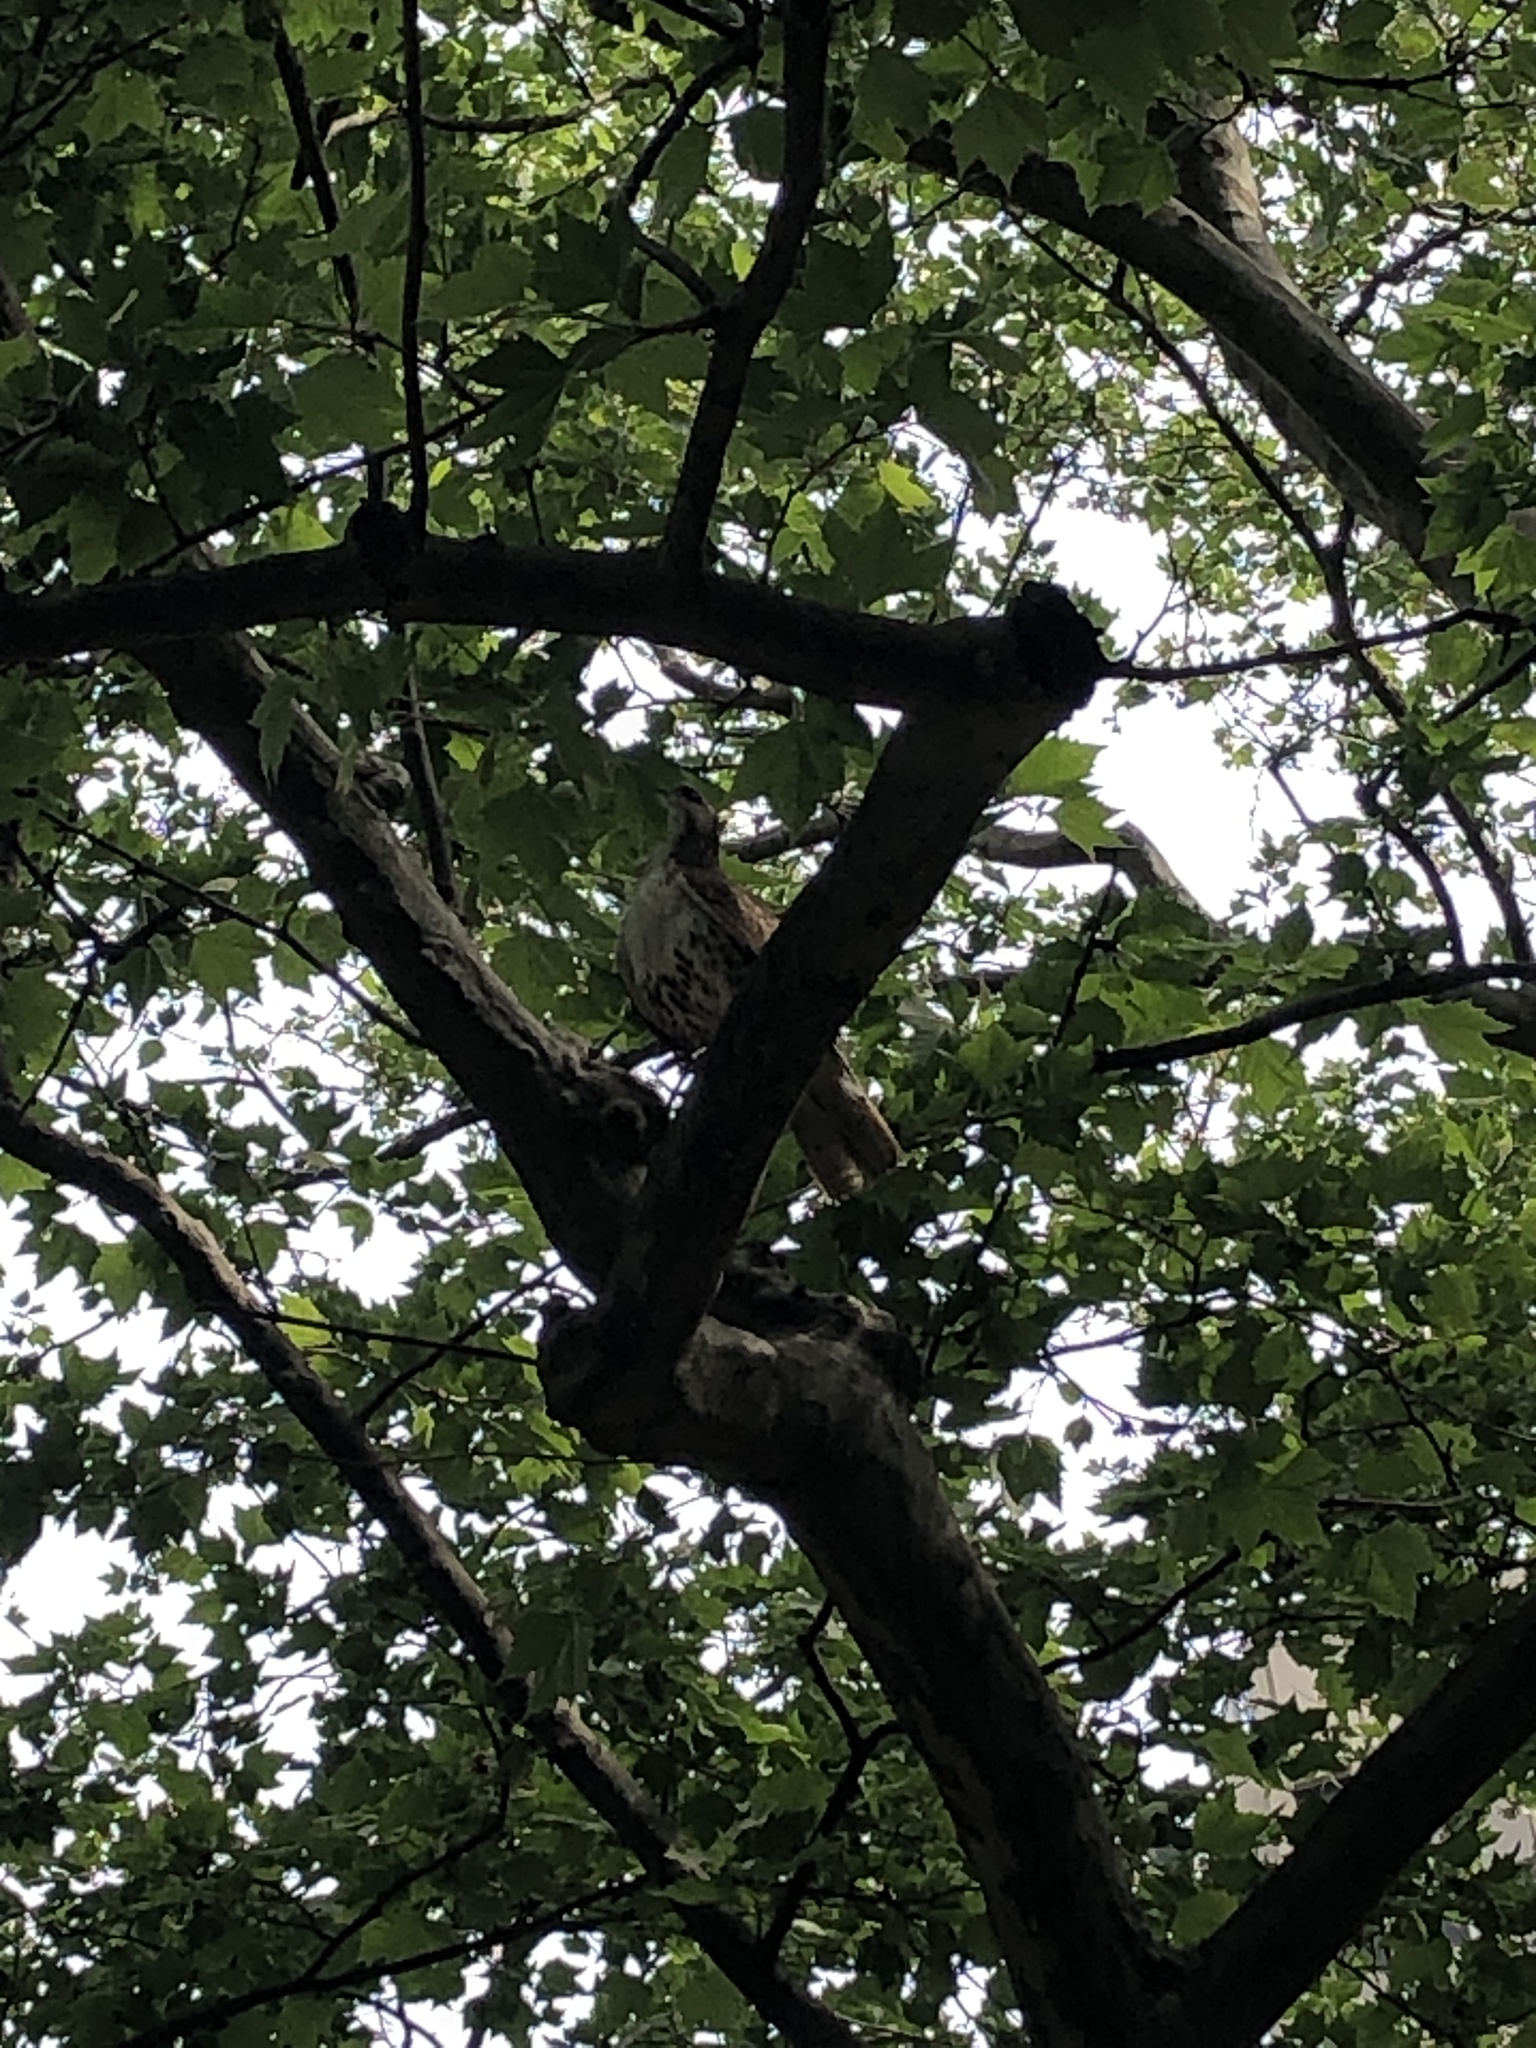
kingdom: Animalia
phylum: Chordata
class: Aves
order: Accipitriformes
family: Accipitridae
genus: Buteo
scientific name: Buteo jamaicensis
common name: Red-tailed hawk
